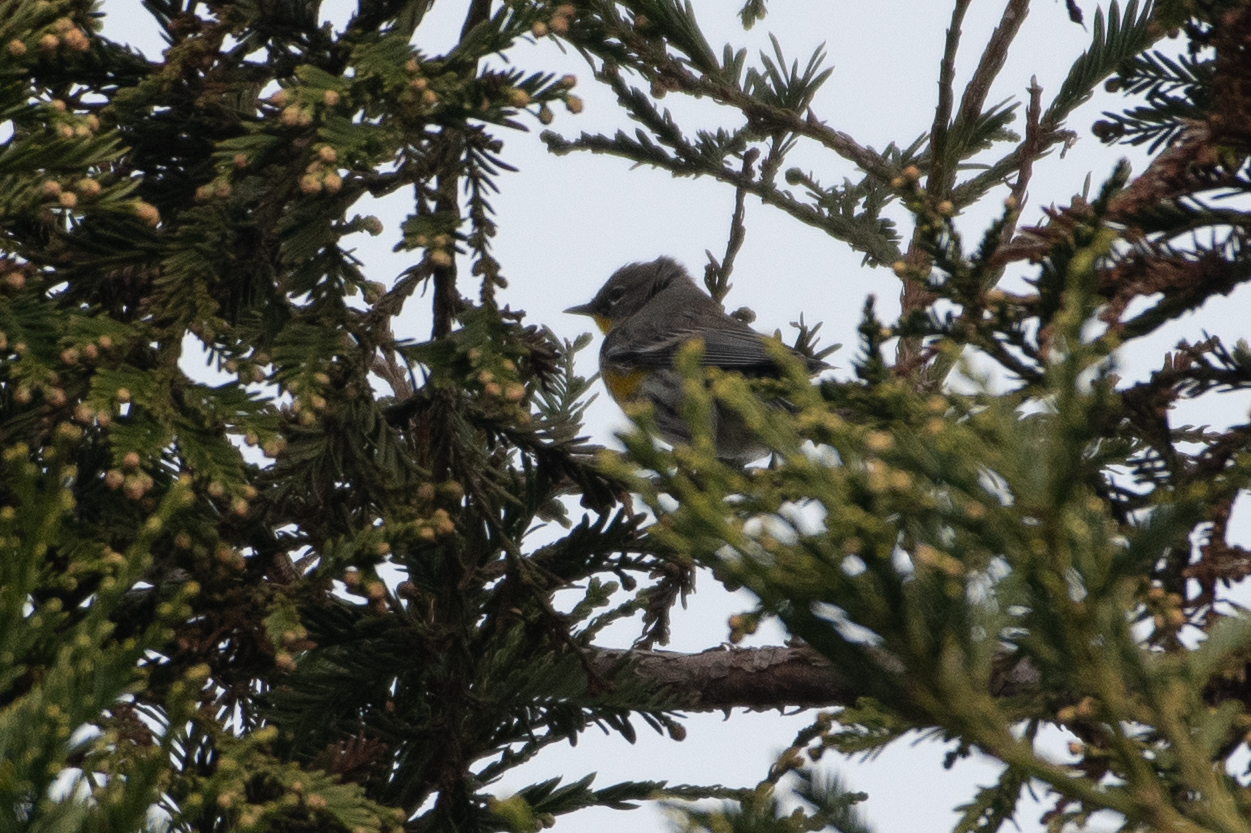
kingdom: Animalia
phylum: Chordata
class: Aves
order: Passeriformes
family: Parulidae
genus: Setophaga
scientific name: Setophaga coronata
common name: Myrtle warbler
